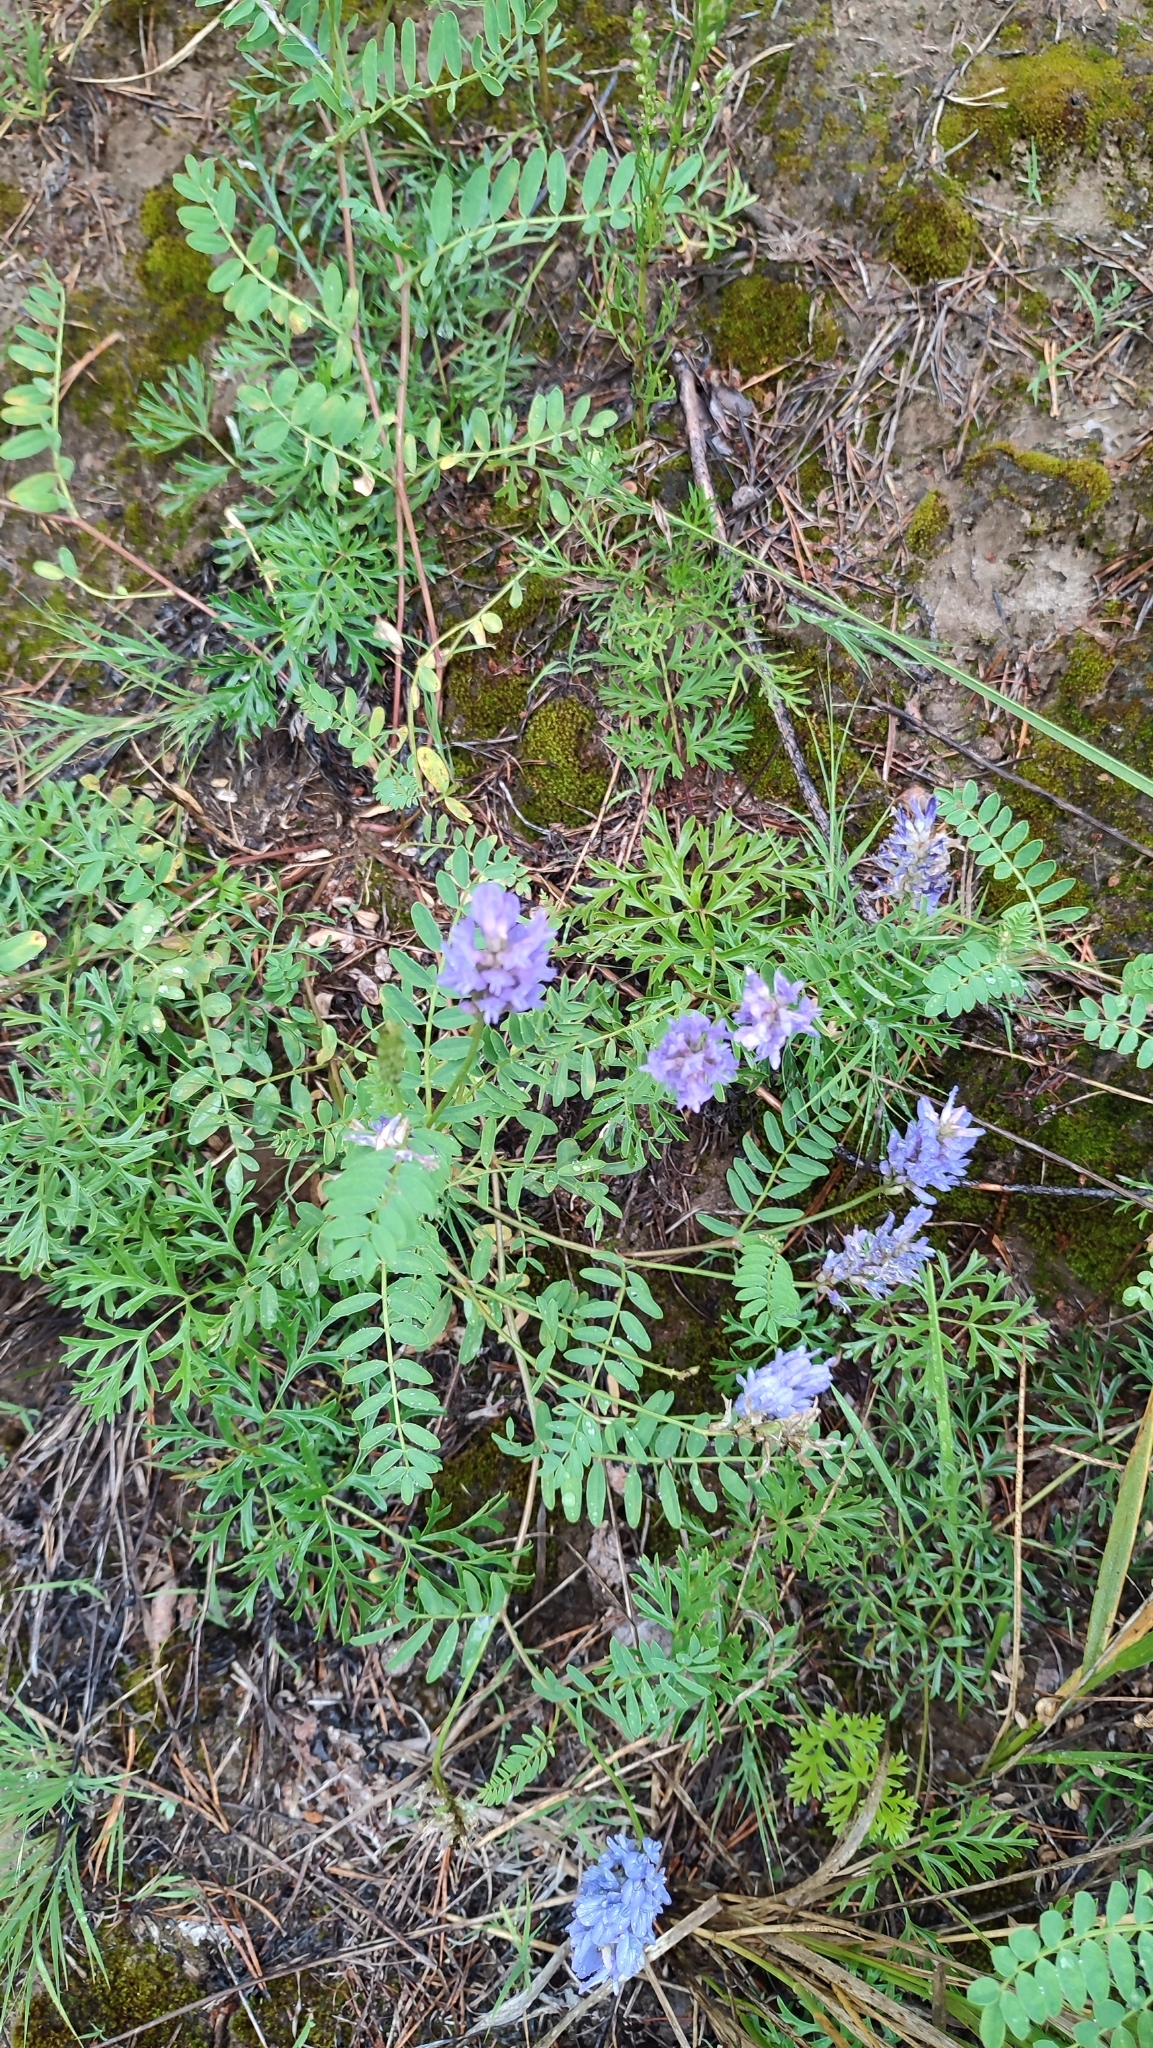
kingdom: Plantae
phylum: Tracheophyta
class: Magnoliopsida
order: Fabales
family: Fabaceae
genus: Astragalus
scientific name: Astragalus laxmannii
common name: Laxmann's milk-vetch
